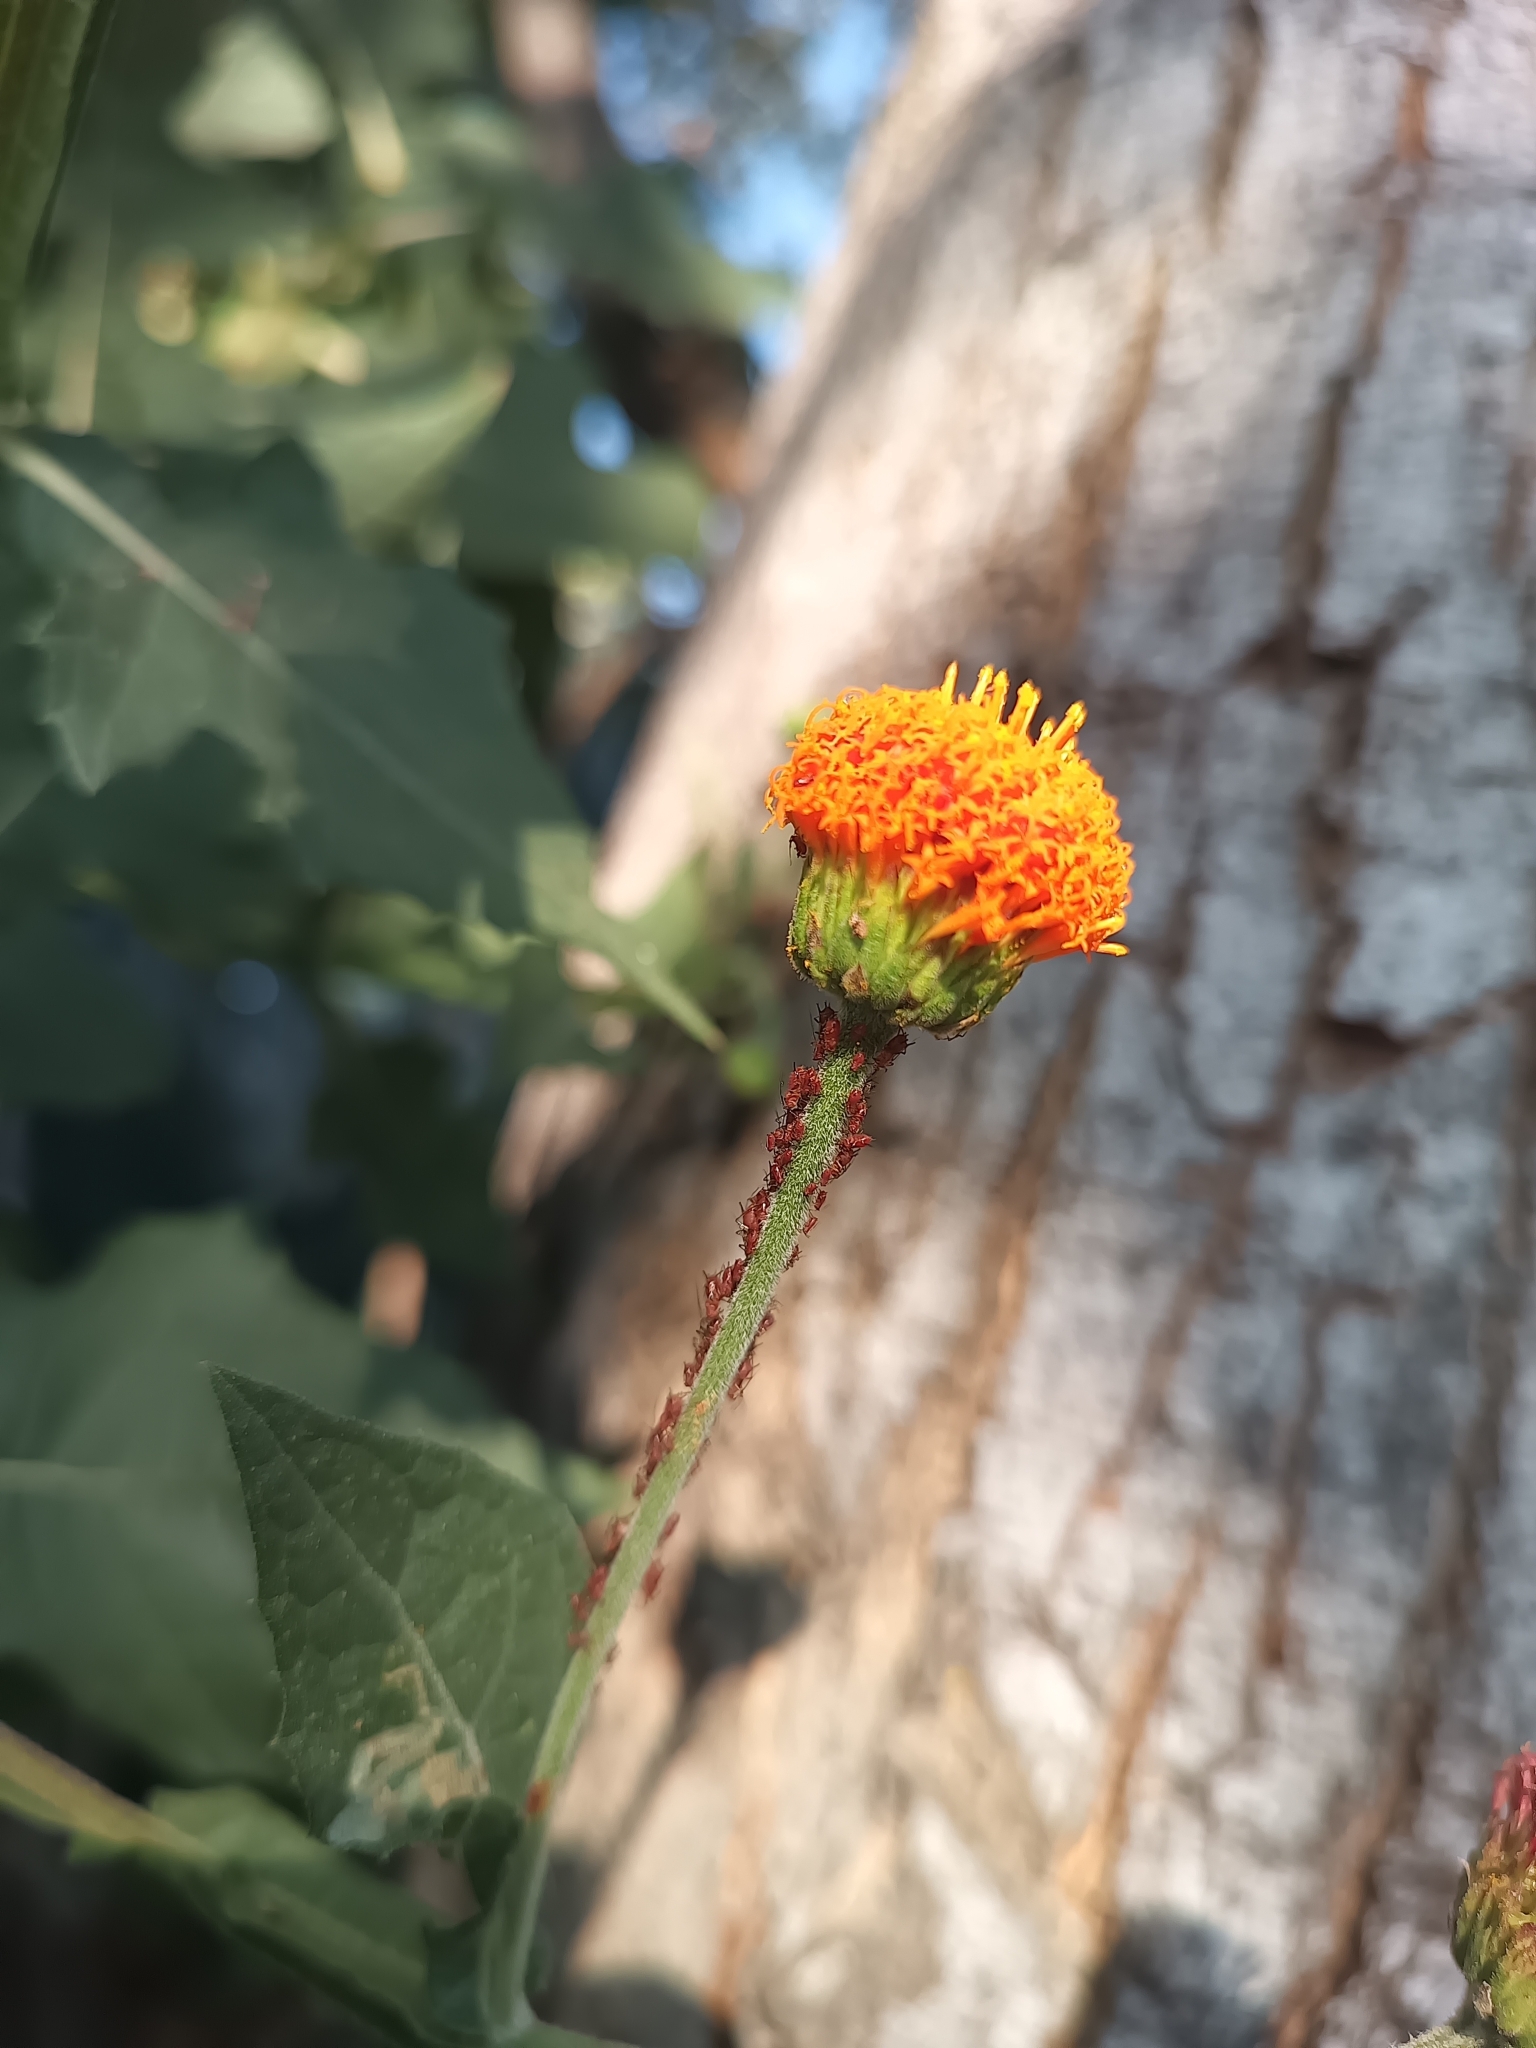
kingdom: Plantae
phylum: Tracheophyta
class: Magnoliopsida
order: Asterales
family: Asteraceae
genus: Verbesina
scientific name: Verbesina crocata
